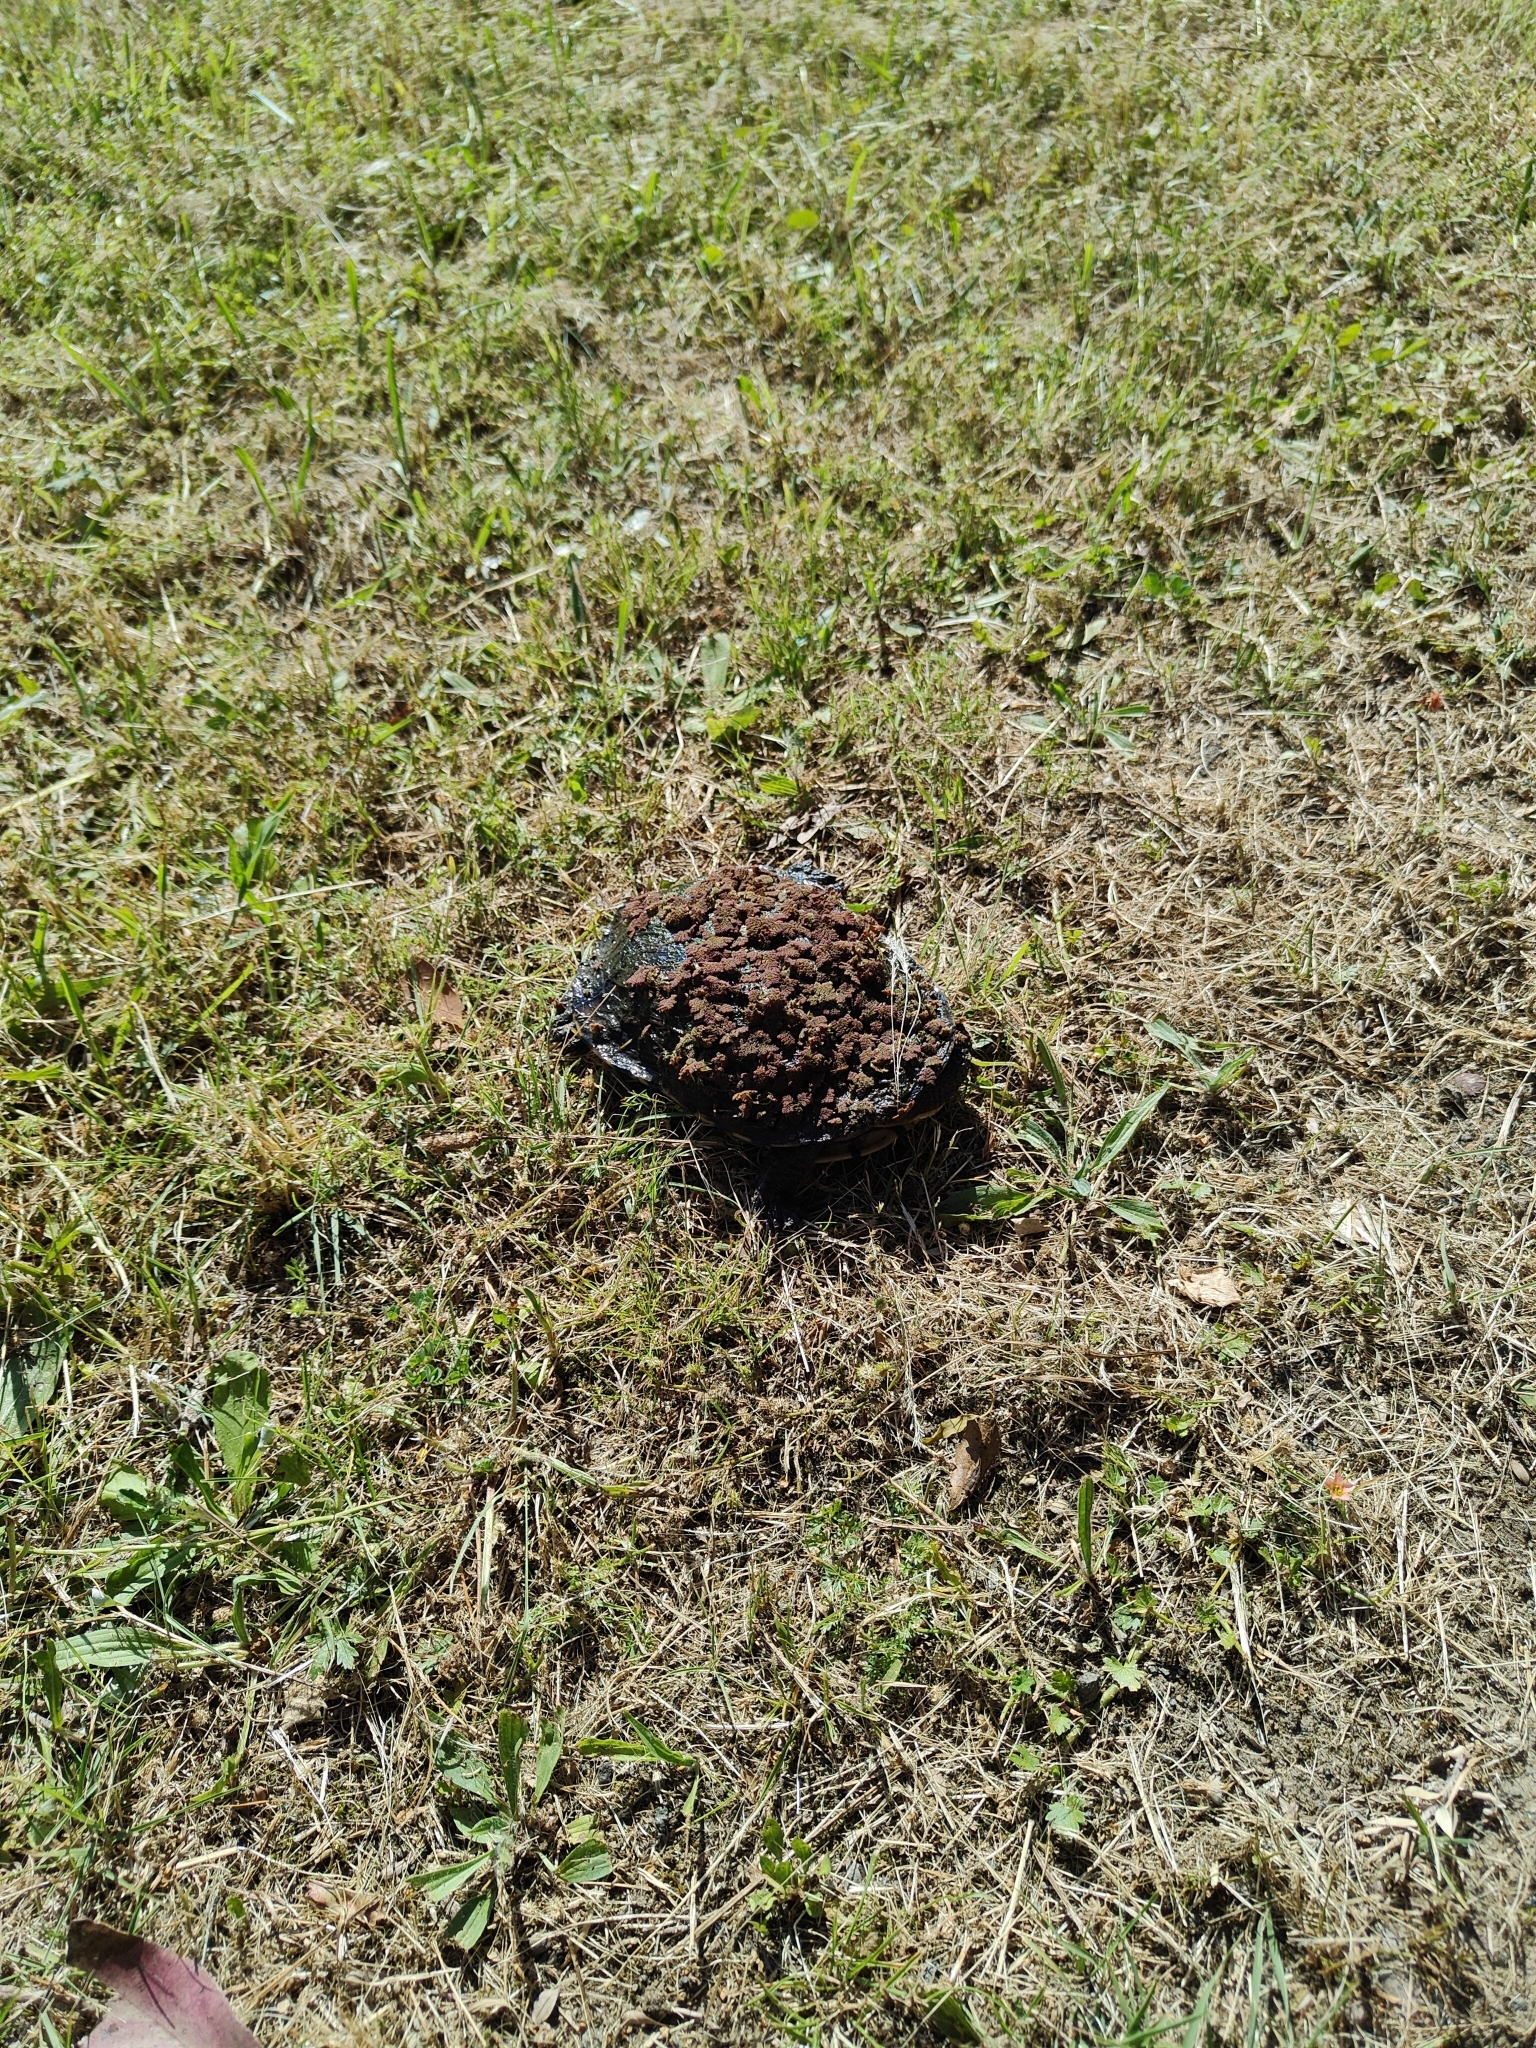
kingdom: Animalia
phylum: Chordata
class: Testudines
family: Chelidae
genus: Chelodina
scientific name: Chelodina longicollis
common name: Eastern snake-necked turtle
